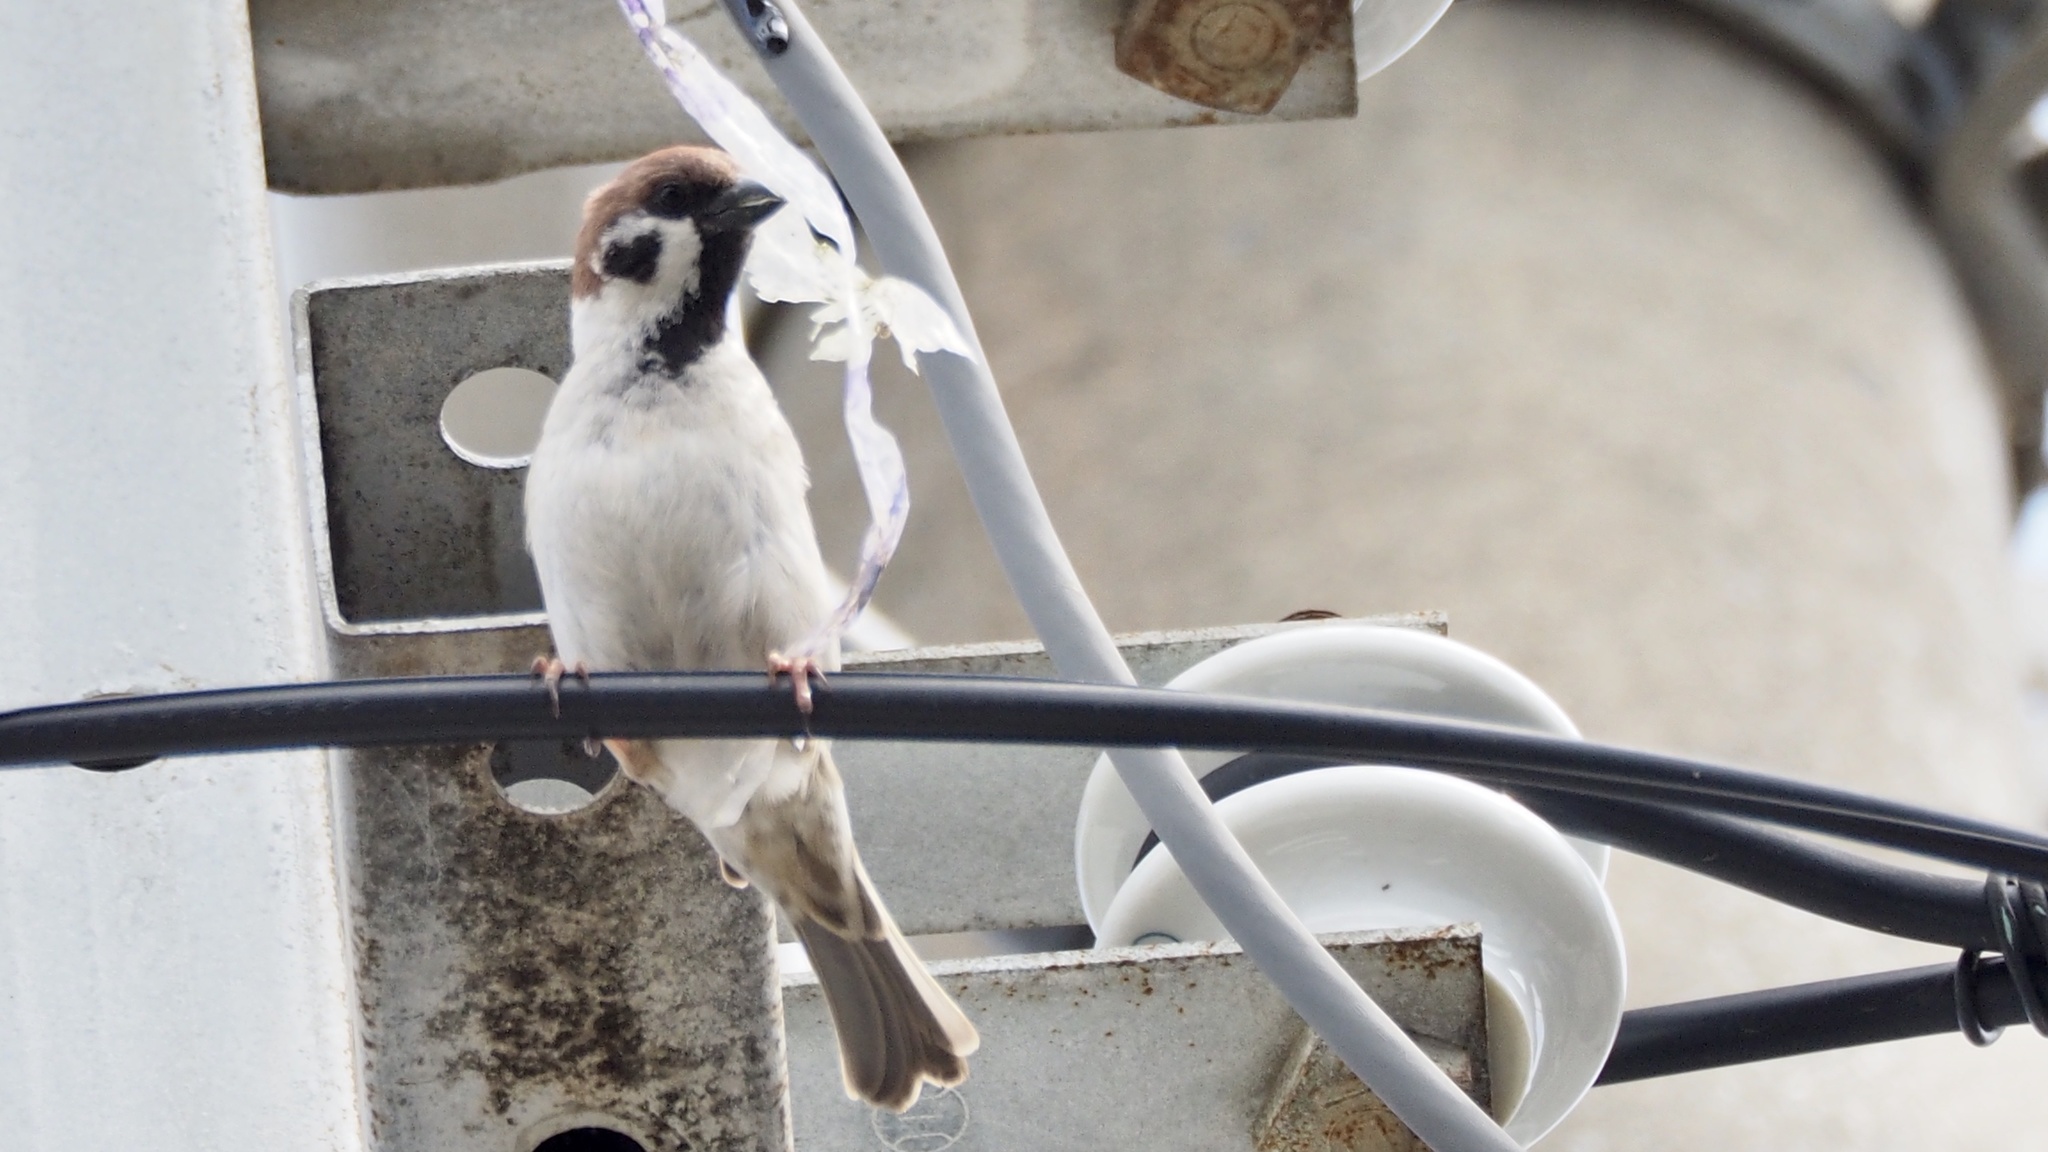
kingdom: Animalia
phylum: Chordata
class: Aves
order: Passeriformes
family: Passeridae
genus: Passer
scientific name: Passer montanus
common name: Eurasian tree sparrow
